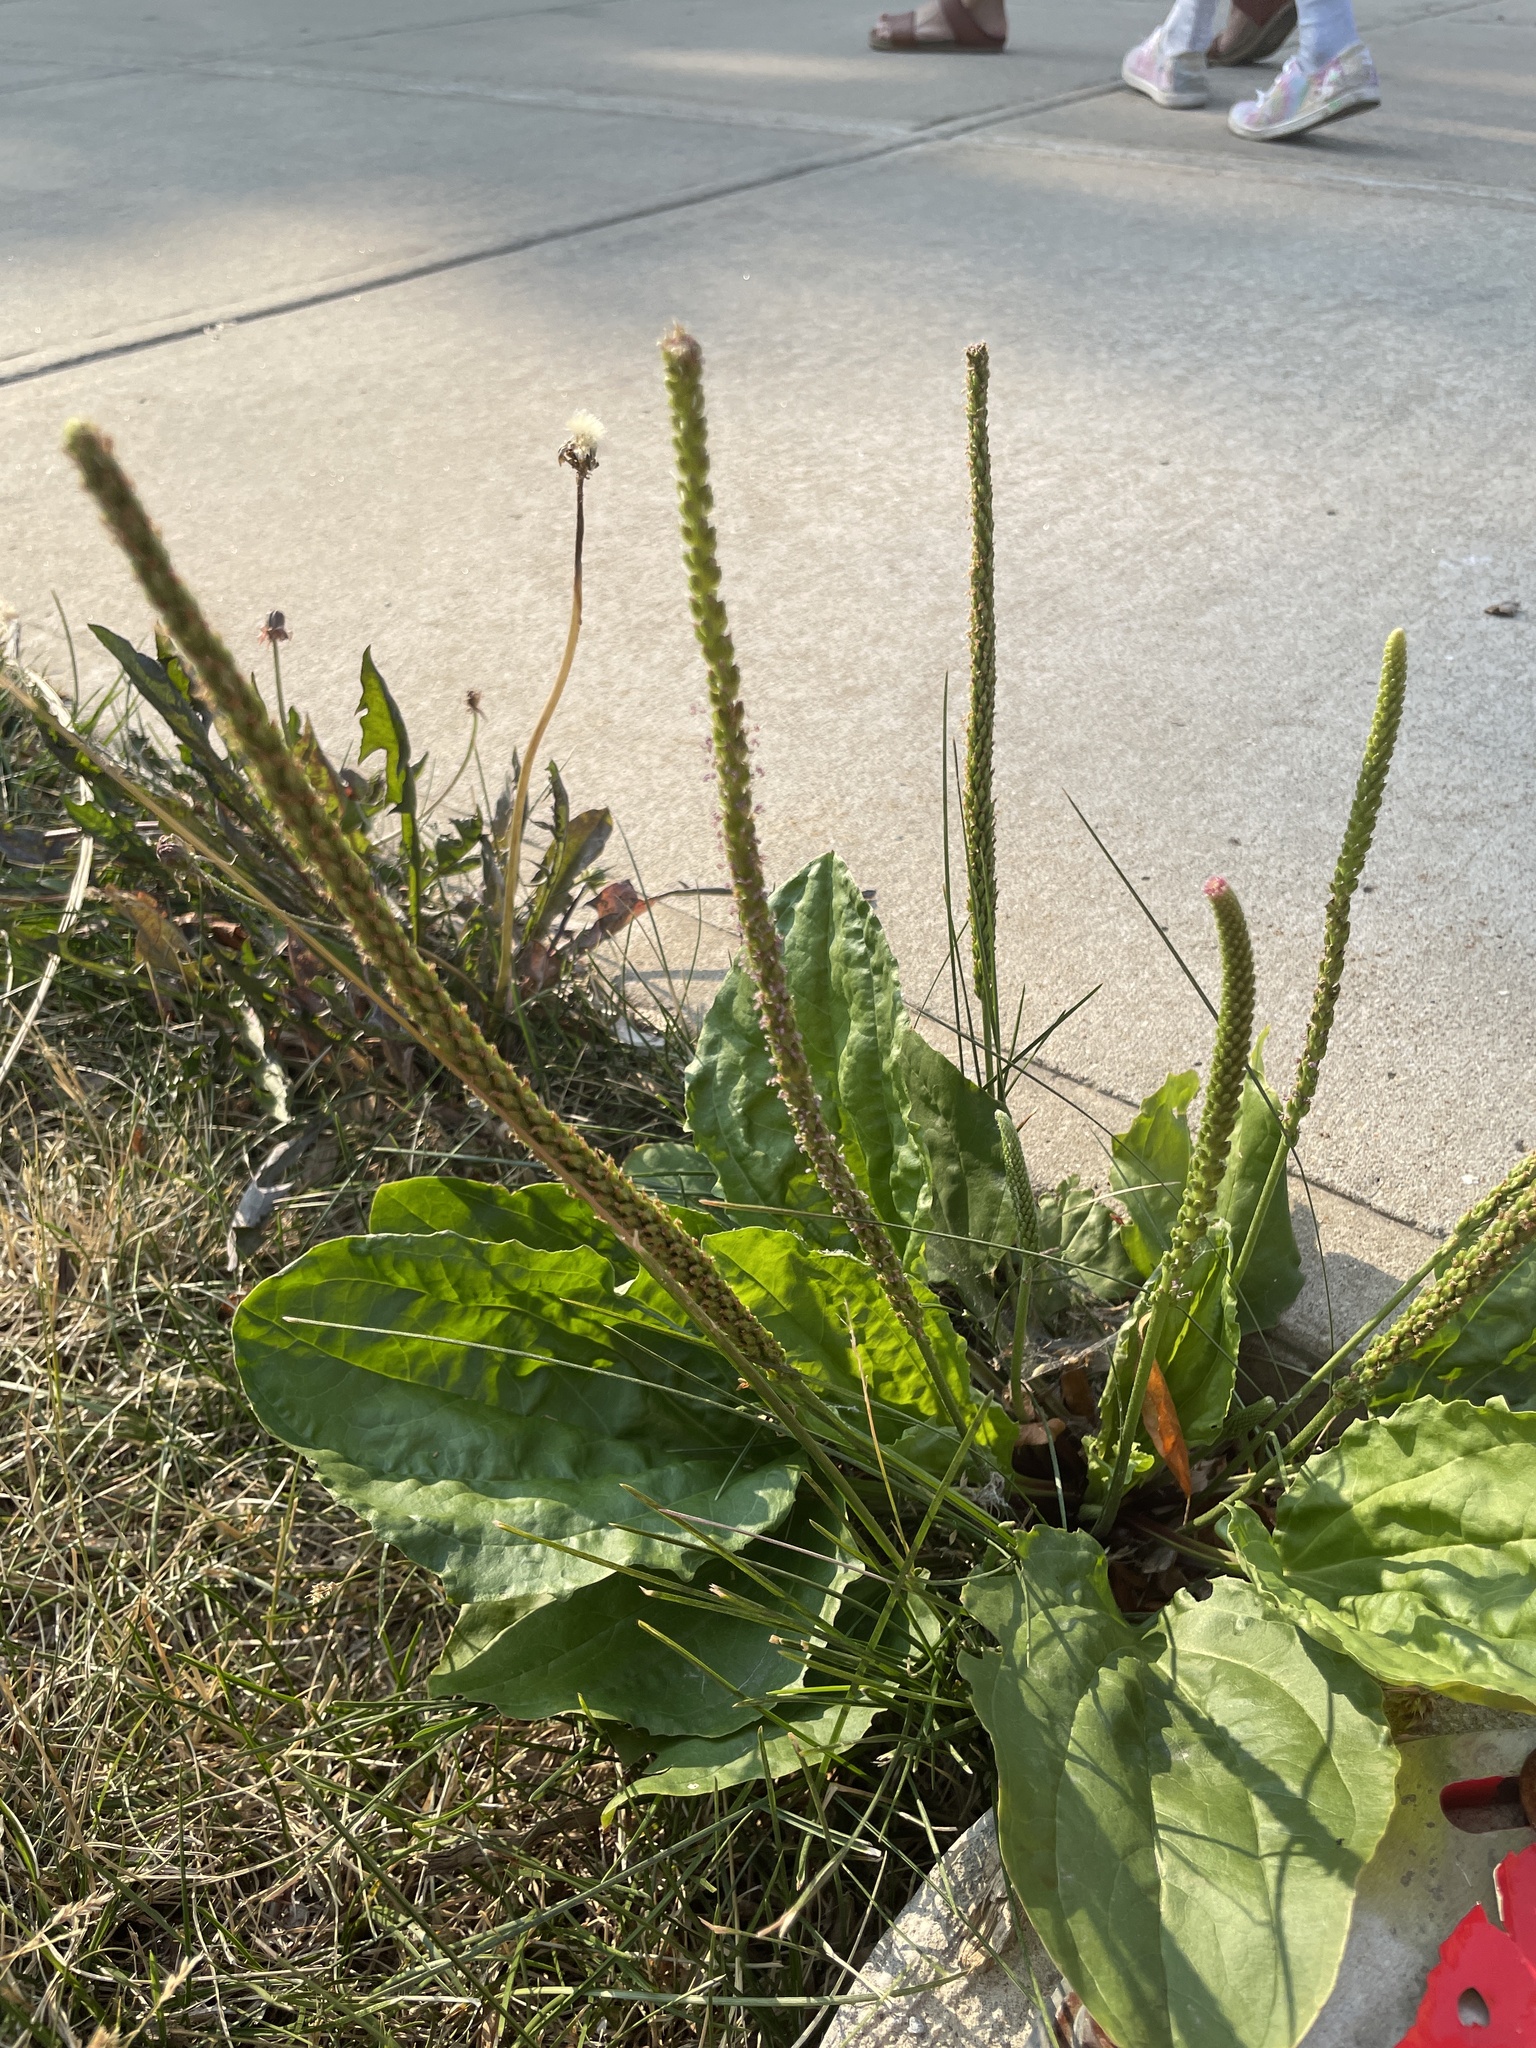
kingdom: Plantae
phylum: Tracheophyta
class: Magnoliopsida
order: Lamiales
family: Plantaginaceae
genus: Plantago
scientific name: Plantago rugelii
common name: American plantain
